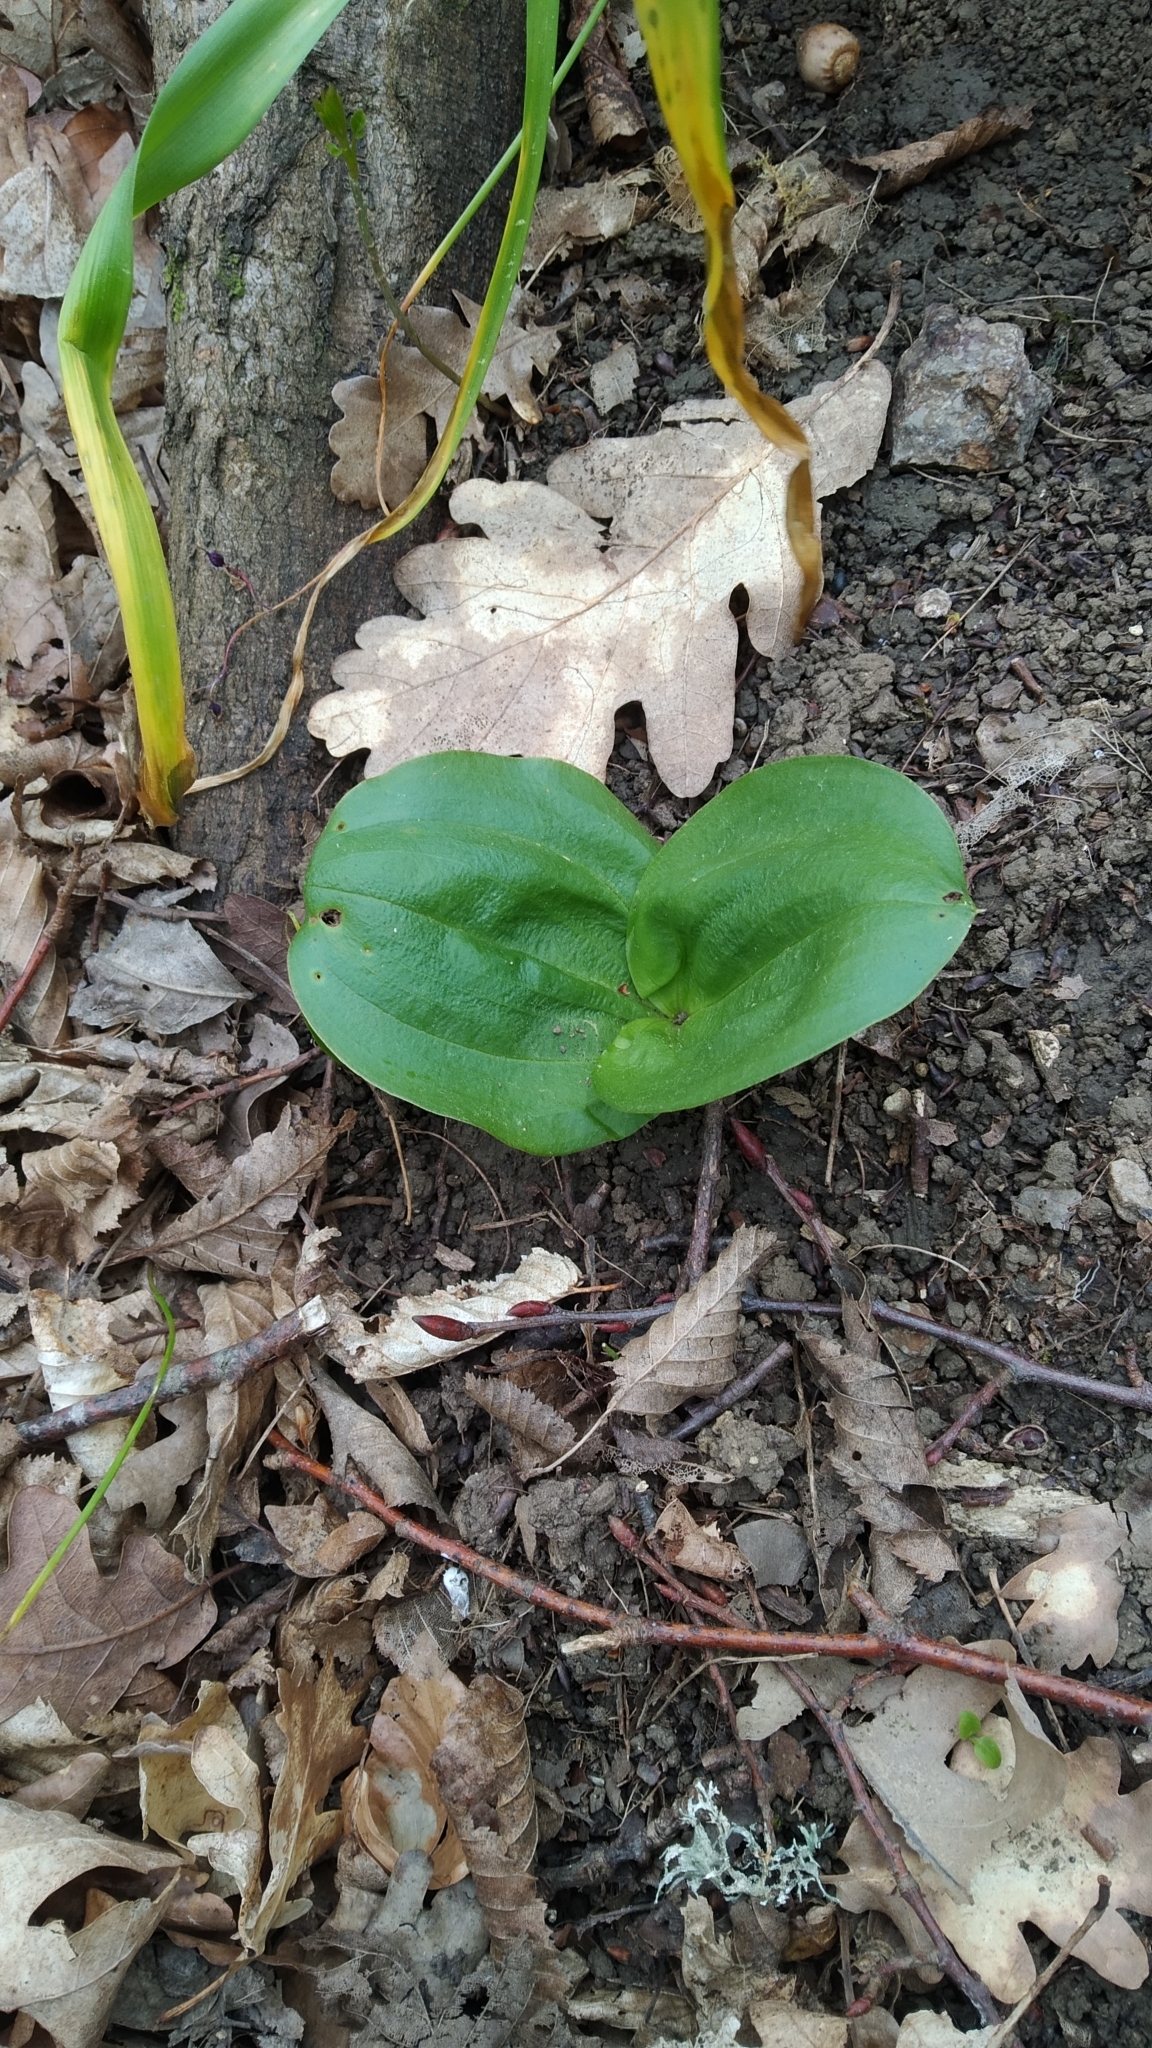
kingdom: Plantae
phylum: Tracheophyta
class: Liliopsida
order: Asparagales
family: Orchidaceae
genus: Neottia
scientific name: Neottia ovata
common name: Common twayblade
